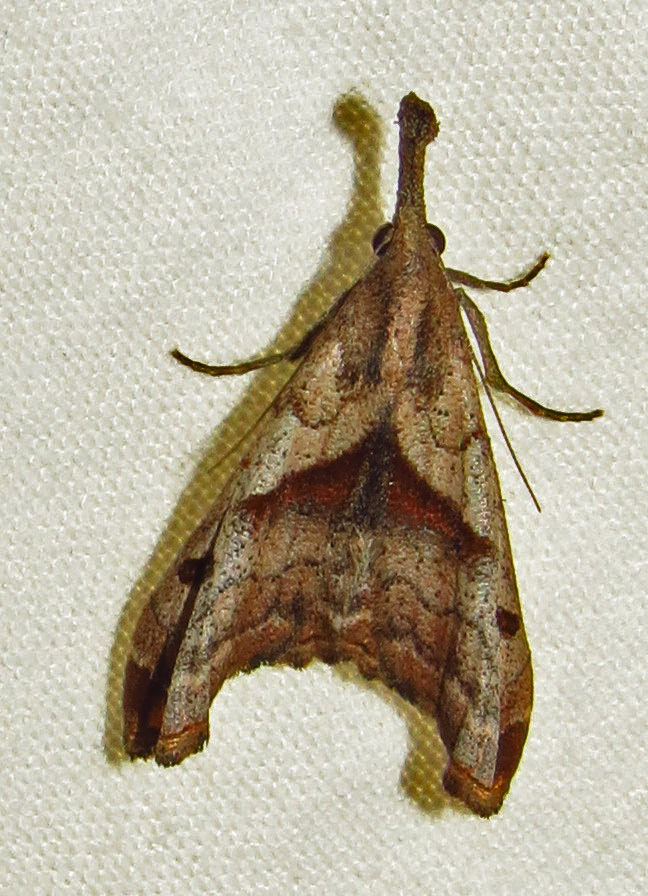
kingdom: Animalia
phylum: Arthropoda
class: Insecta
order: Lepidoptera
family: Erebidae
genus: Palthis
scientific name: Palthis angulalis
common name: Dark-spotted palthis moth
